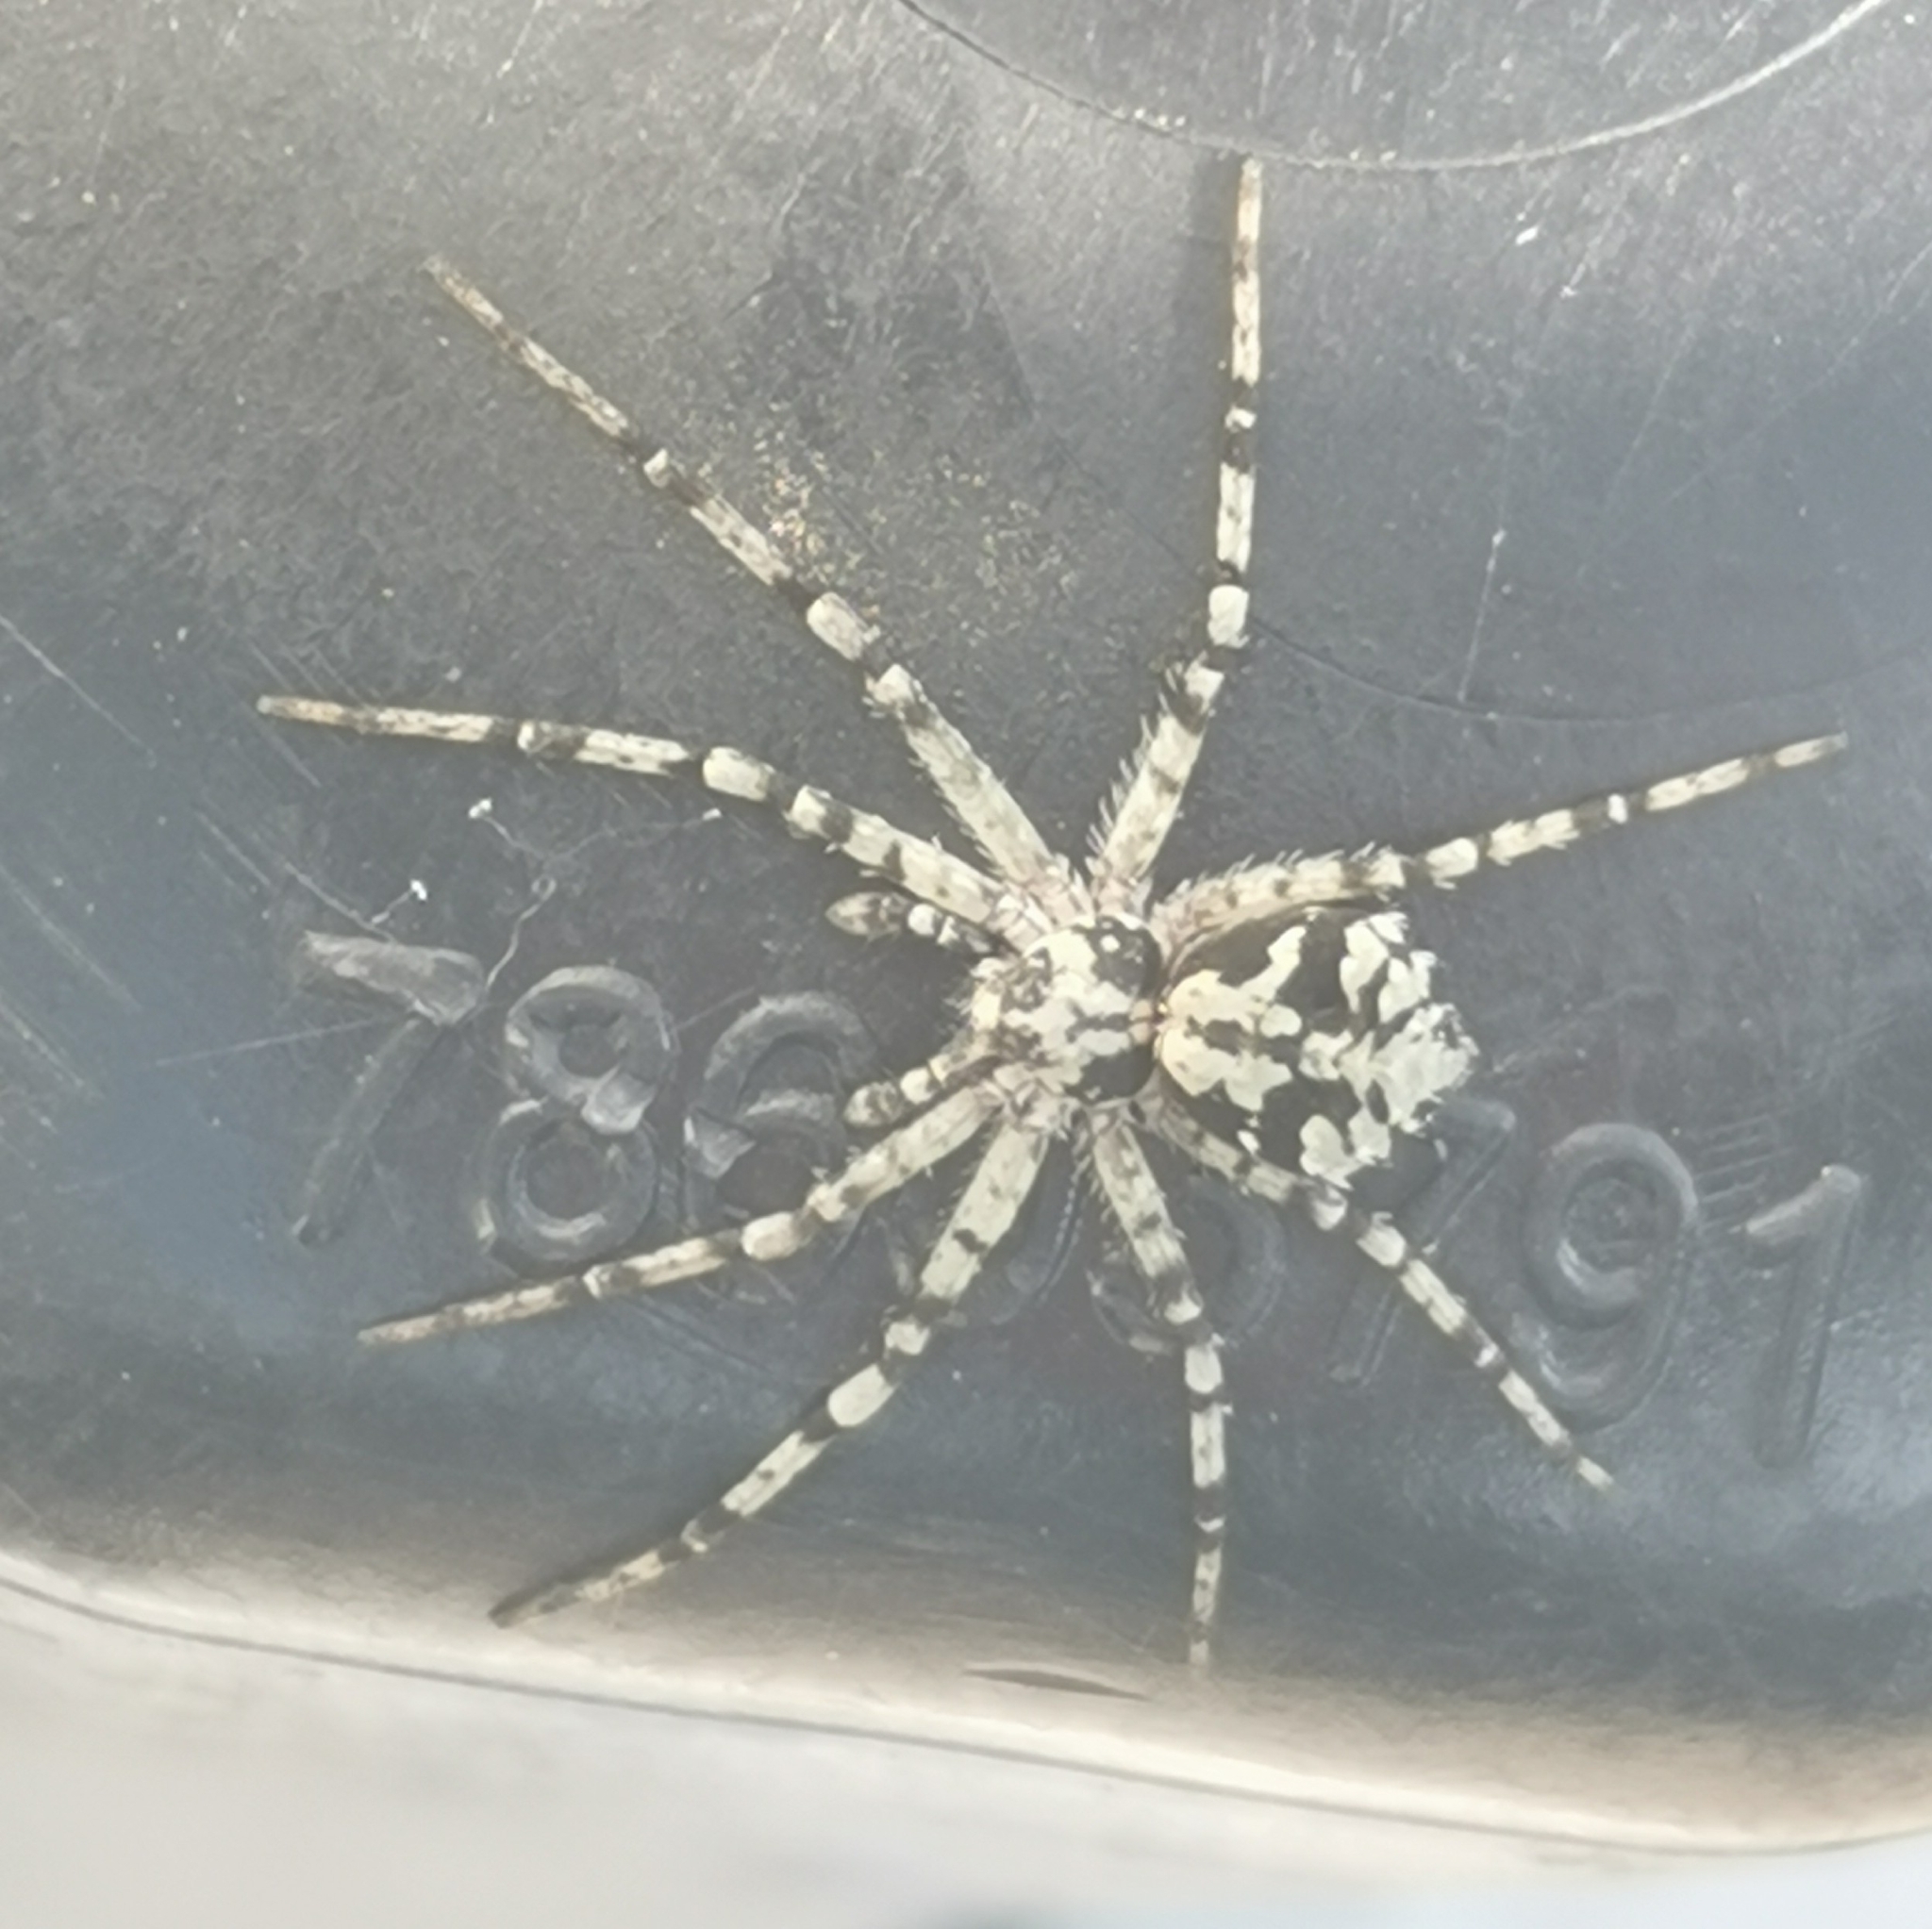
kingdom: Animalia
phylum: Arthropoda
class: Arachnida
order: Araneae
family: Philodromidae
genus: Philodromus
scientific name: Philodromus margaritatus
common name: Lichen running-spider
